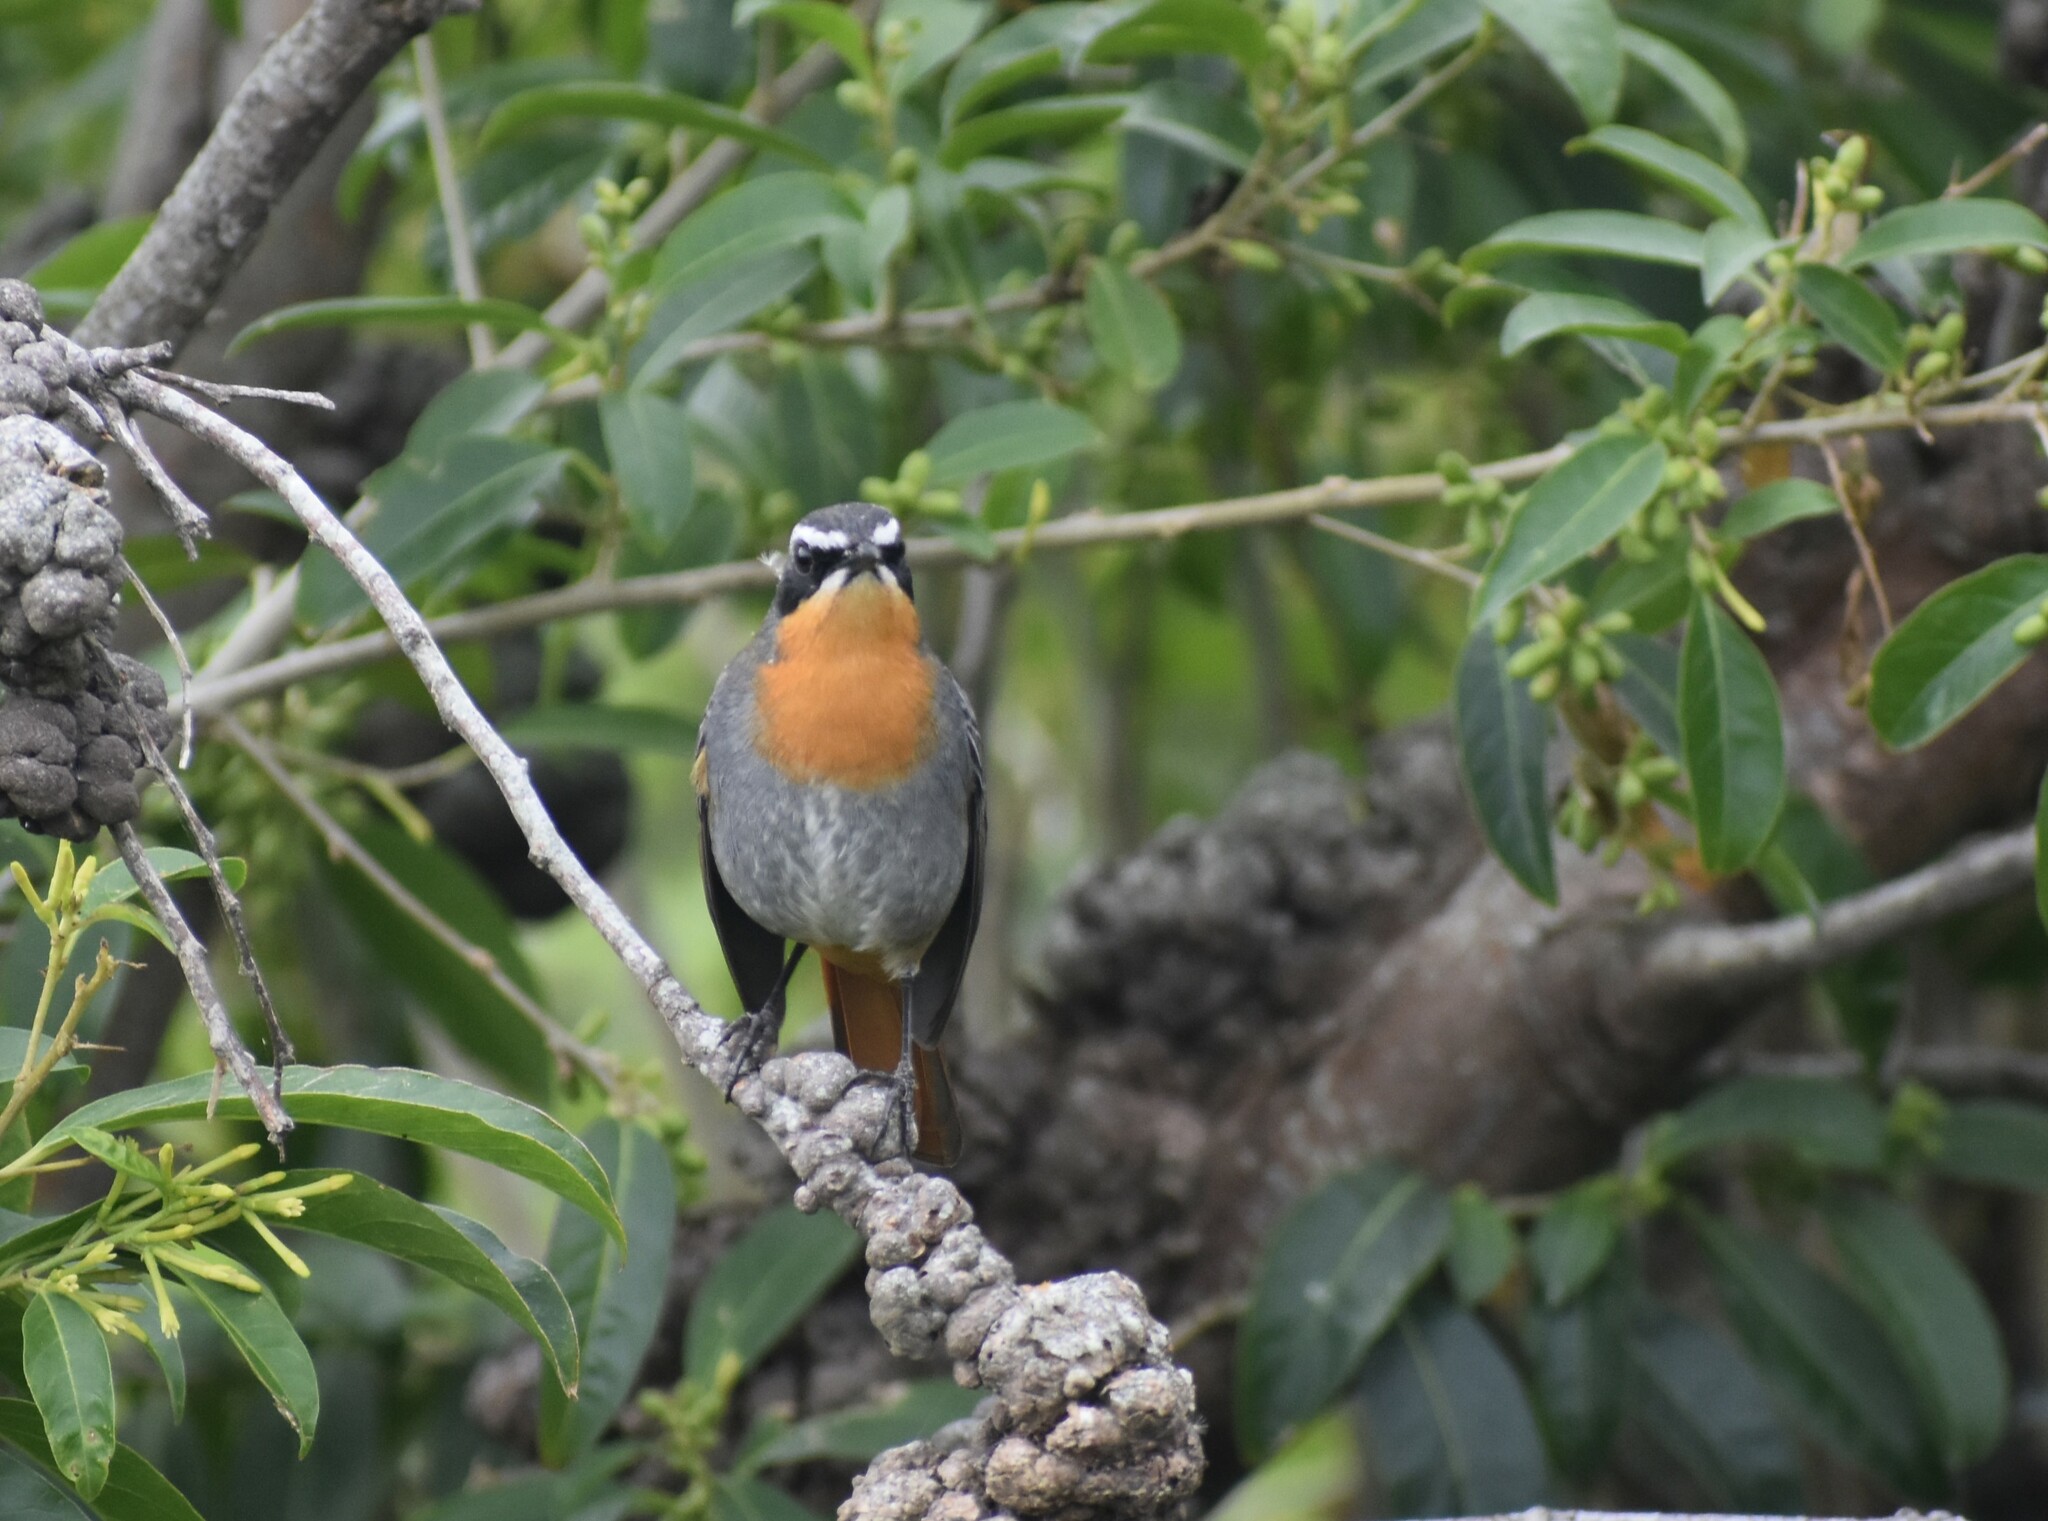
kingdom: Animalia
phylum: Chordata
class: Aves
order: Passeriformes
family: Muscicapidae
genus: Cossypha
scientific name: Cossypha caffra
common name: Cape robin-chat
